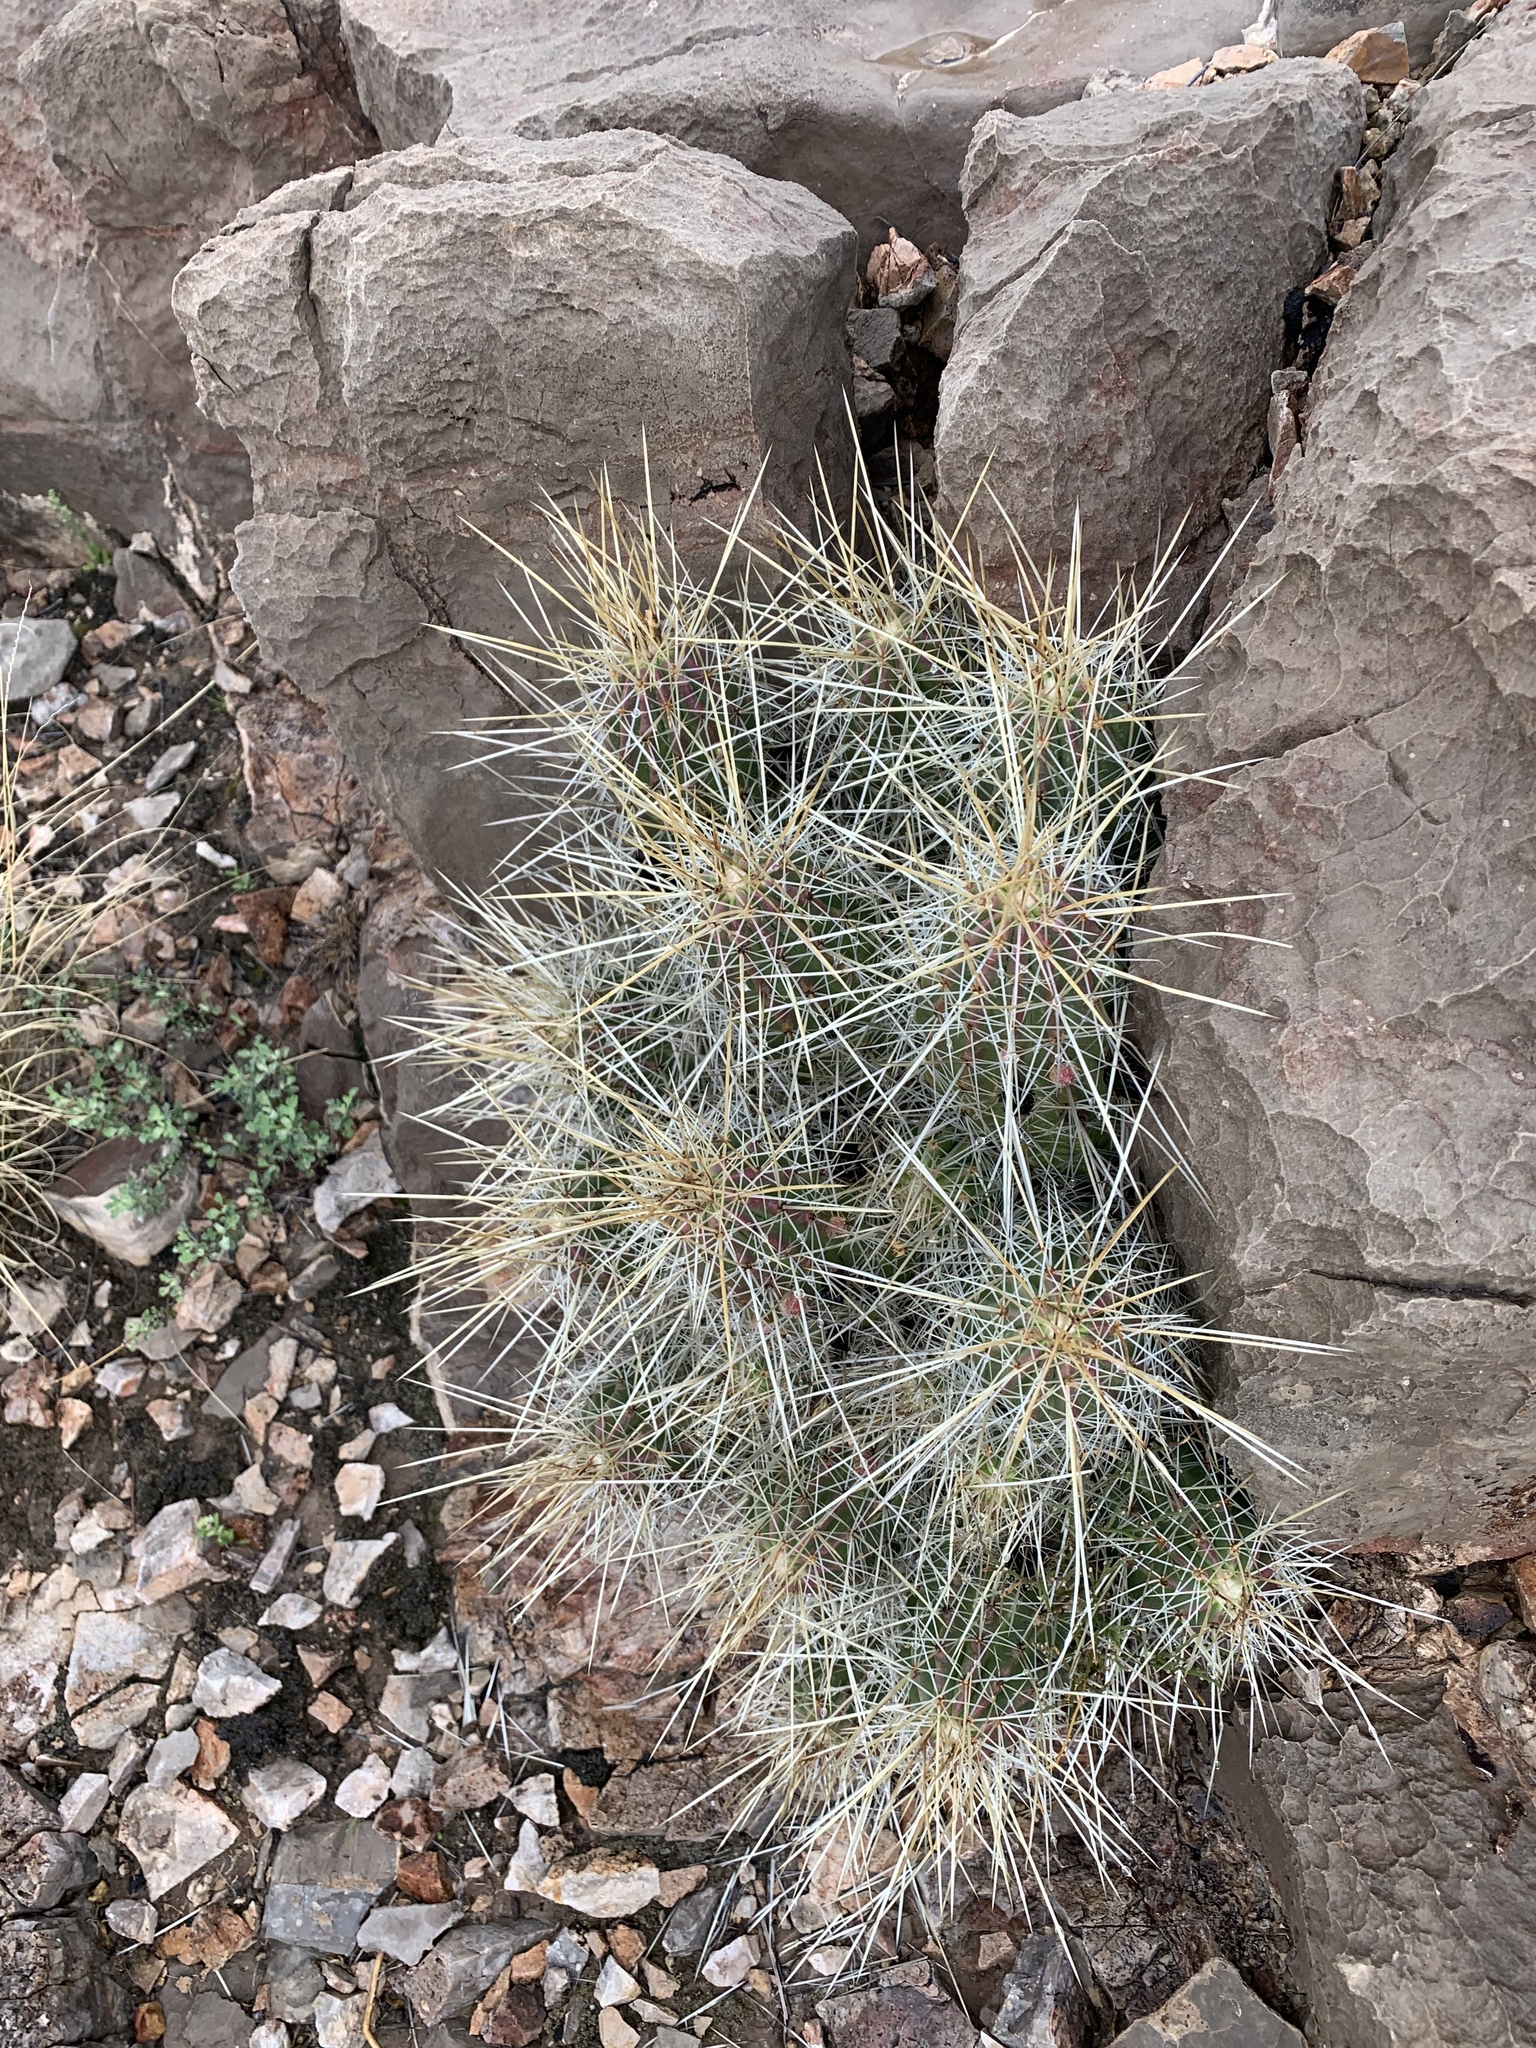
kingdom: Plantae
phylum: Tracheophyta
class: Magnoliopsida
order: Caryophyllales
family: Cactaceae
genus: Echinocereus
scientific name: Echinocereus stramineus
